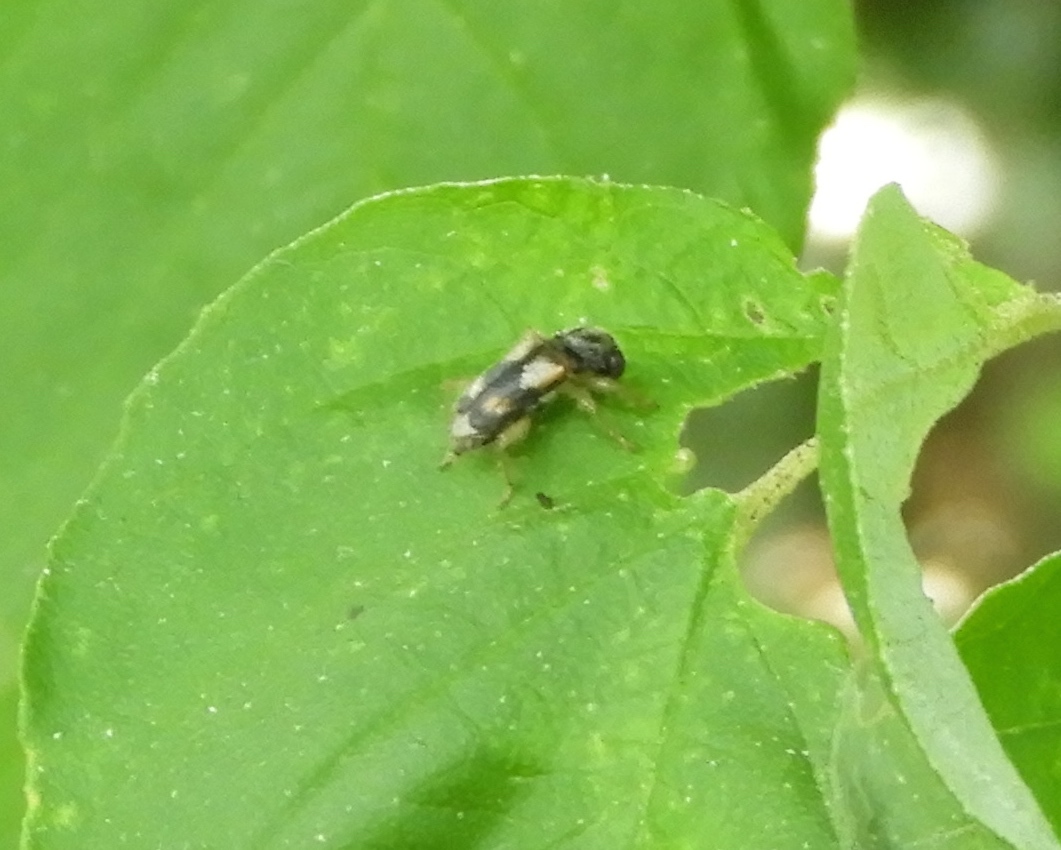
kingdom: Animalia
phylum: Arthropoda
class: Insecta
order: Coleoptera
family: Cleridae
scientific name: Cleridae
